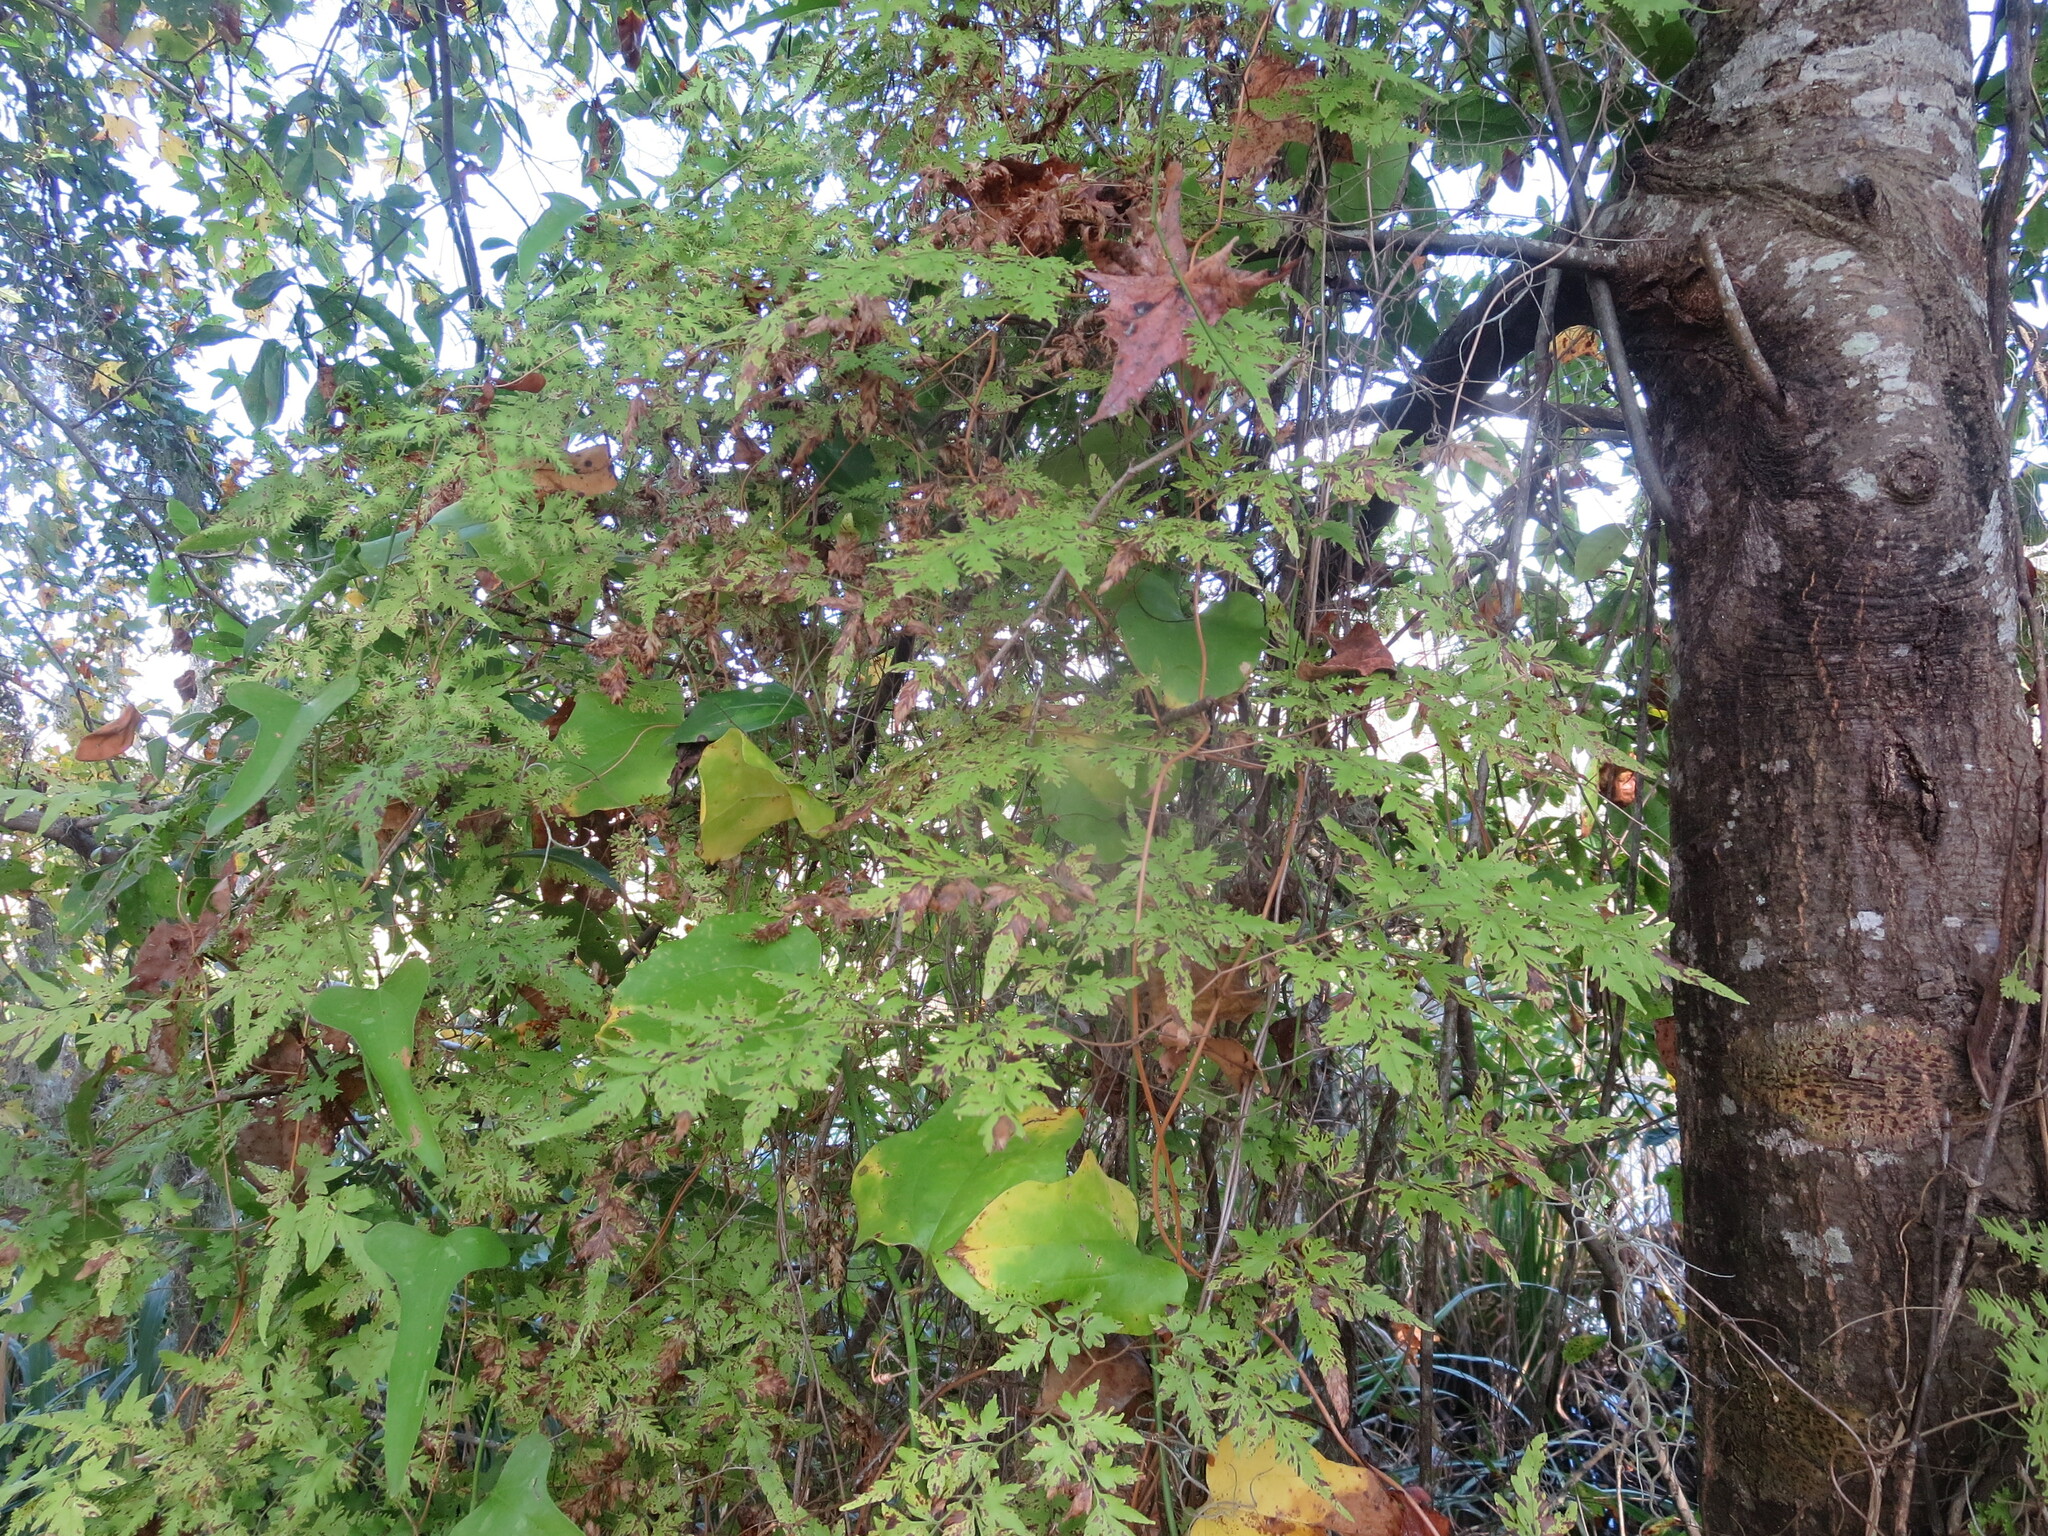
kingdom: Plantae
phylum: Tracheophyta
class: Polypodiopsida
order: Schizaeales
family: Lygodiaceae
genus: Lygodium
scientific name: Lygodium japonicum
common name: Japanese climbing fern
